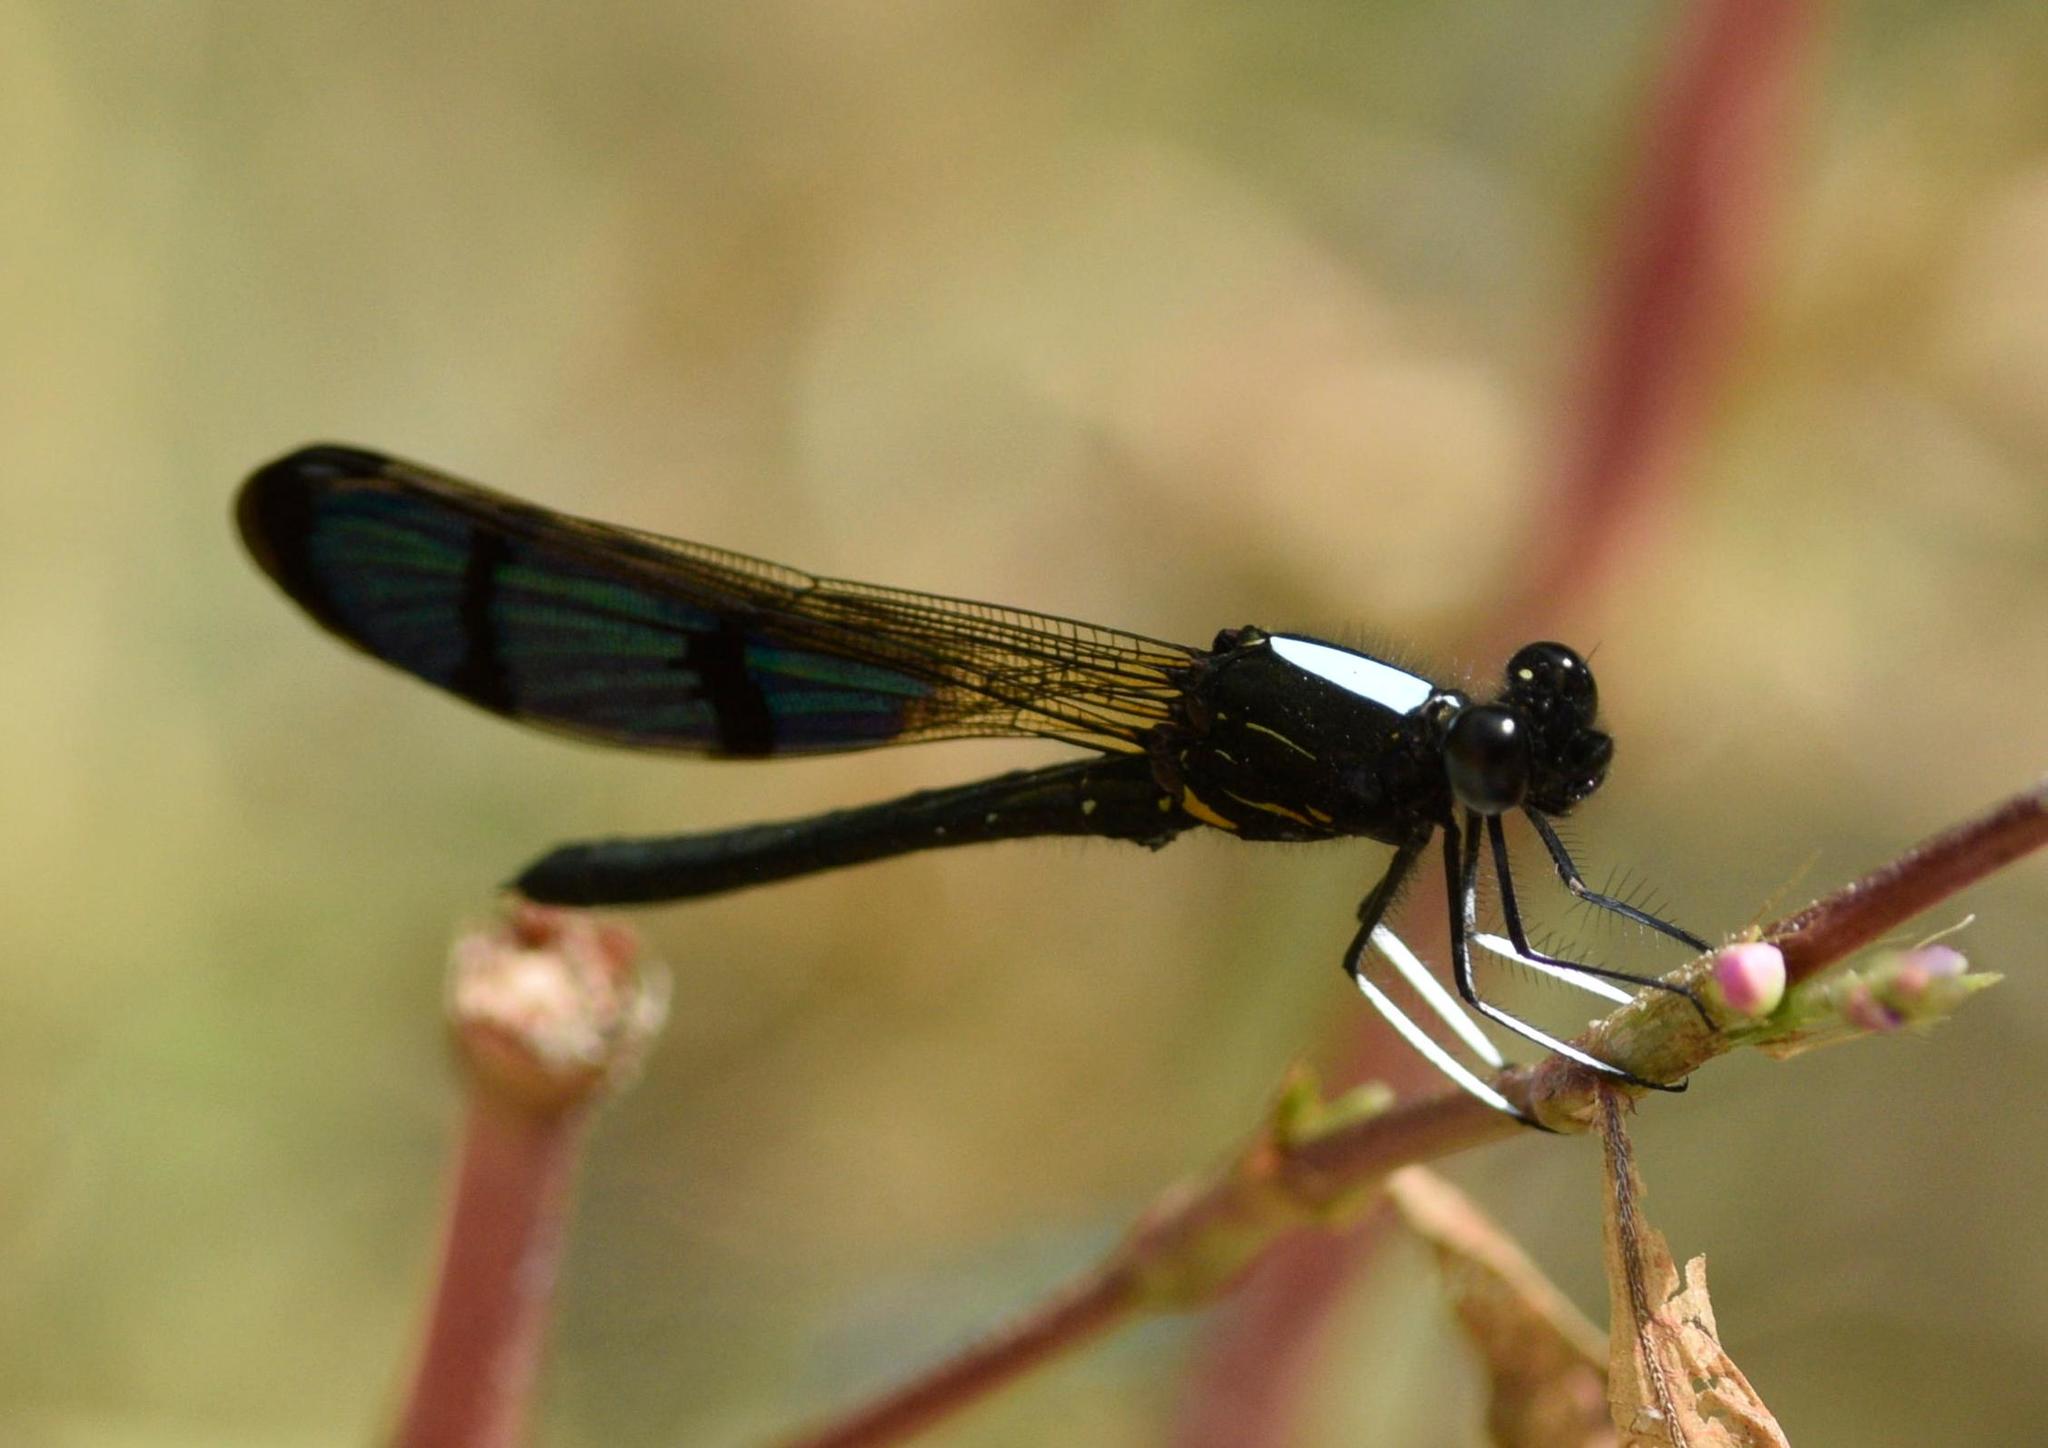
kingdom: Animalia
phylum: Arthropoda
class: Insecta
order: Odonata
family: Chlorocyphidae
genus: Aristocypha
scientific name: Aristocypha trifasciata
